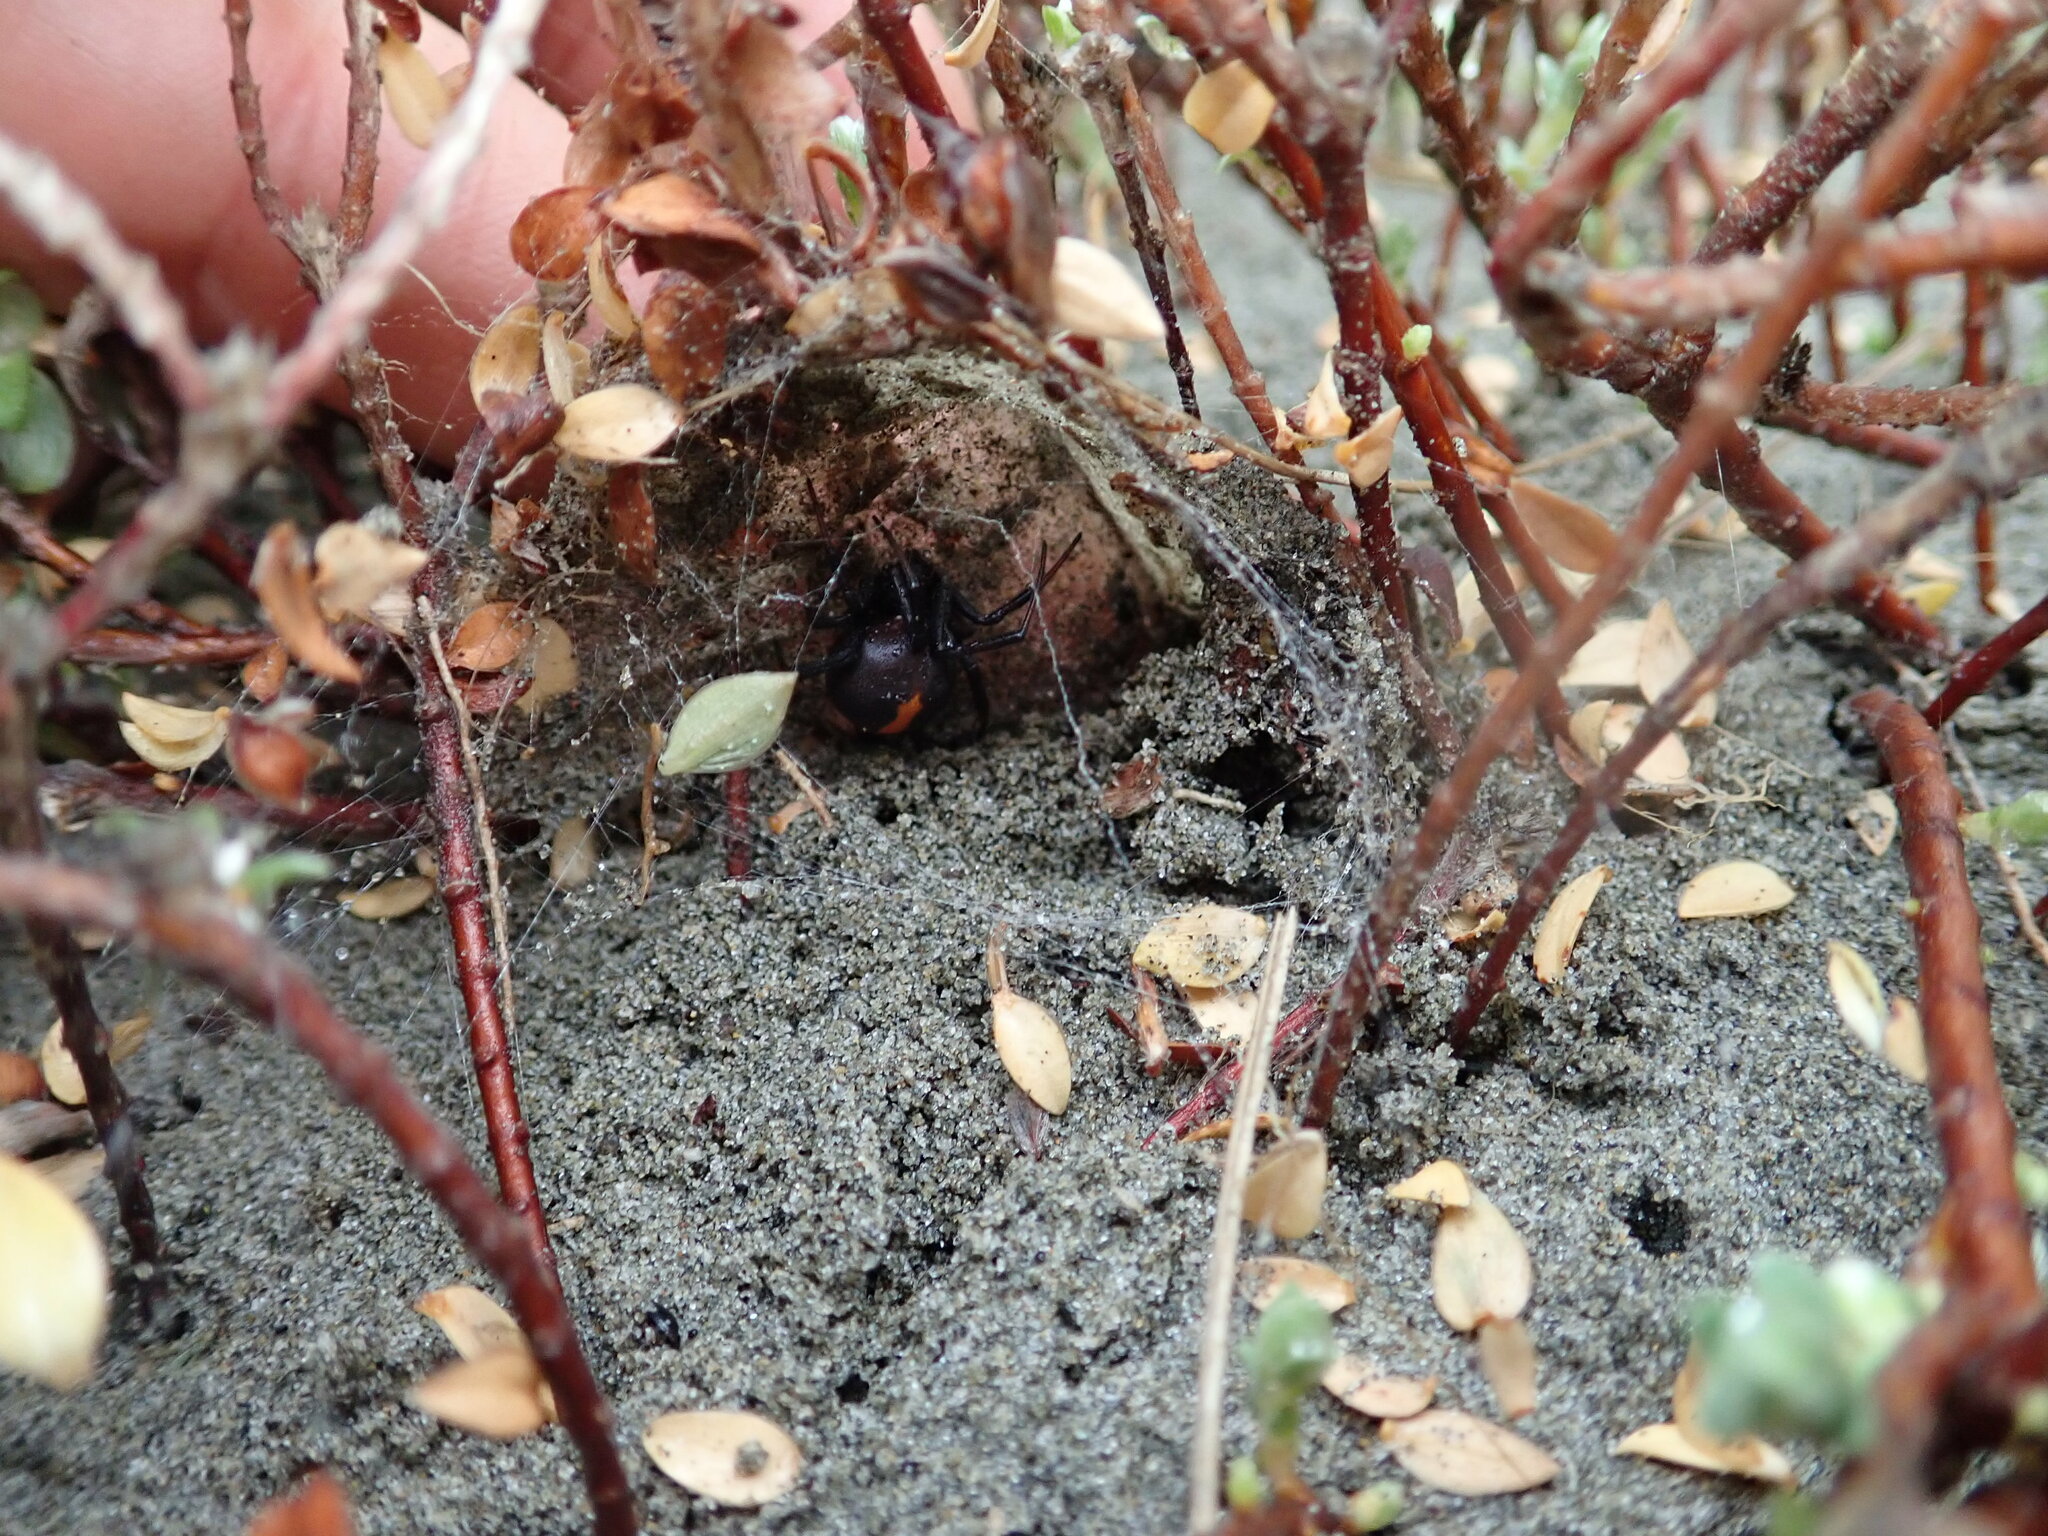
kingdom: Animalia
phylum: Arthropoda
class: Insecta
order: Hemiptera
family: Cicadidae
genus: Rhodopsalta
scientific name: Rhodopsalta leptomera
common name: Sand dune redtail cicada
